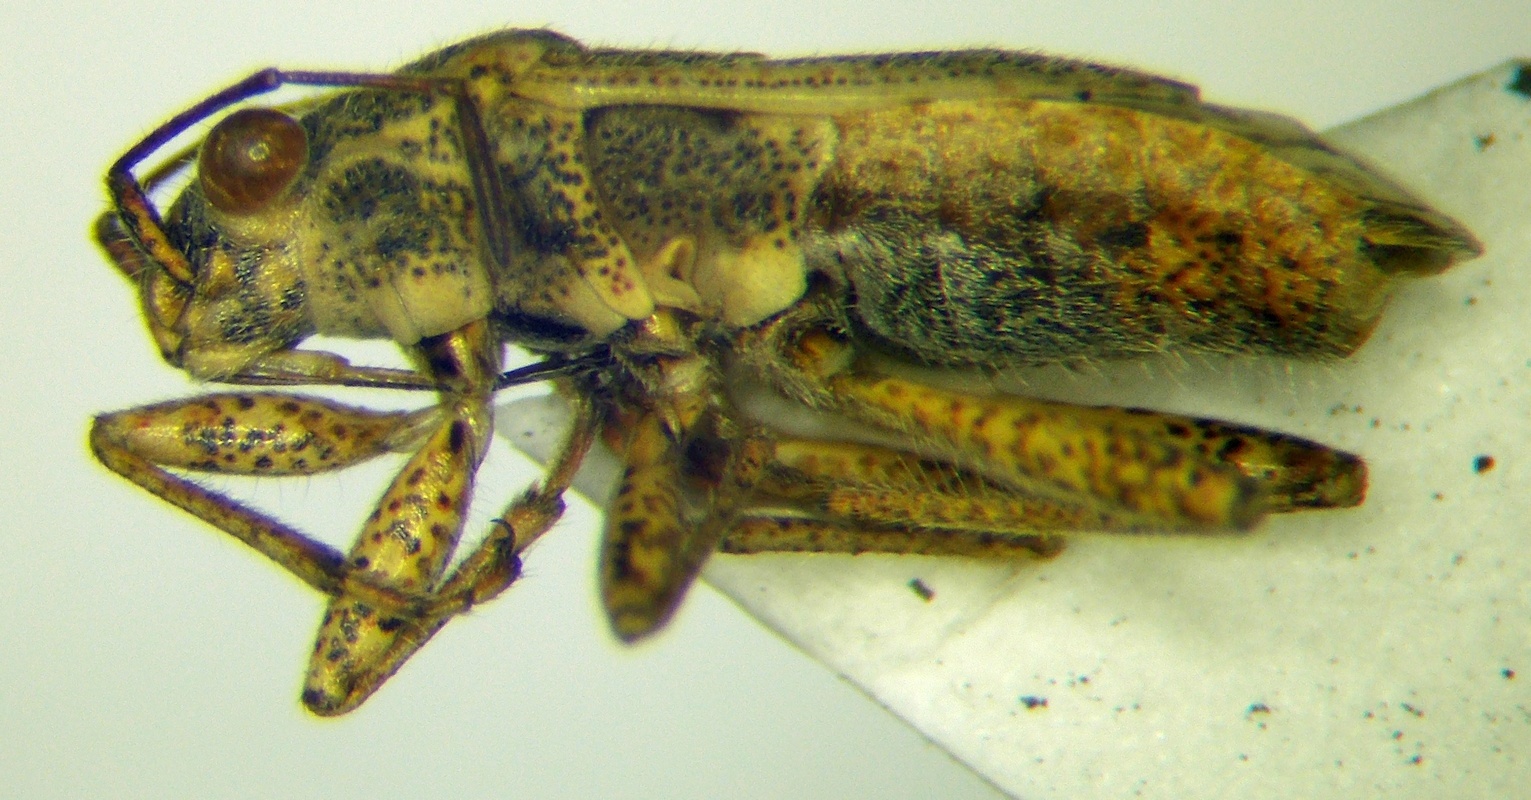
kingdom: Animalia
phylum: Arthropoda
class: Insecta
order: Hemiptera
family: Geocoridae
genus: Henestaris
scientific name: Henestaris halophilus
